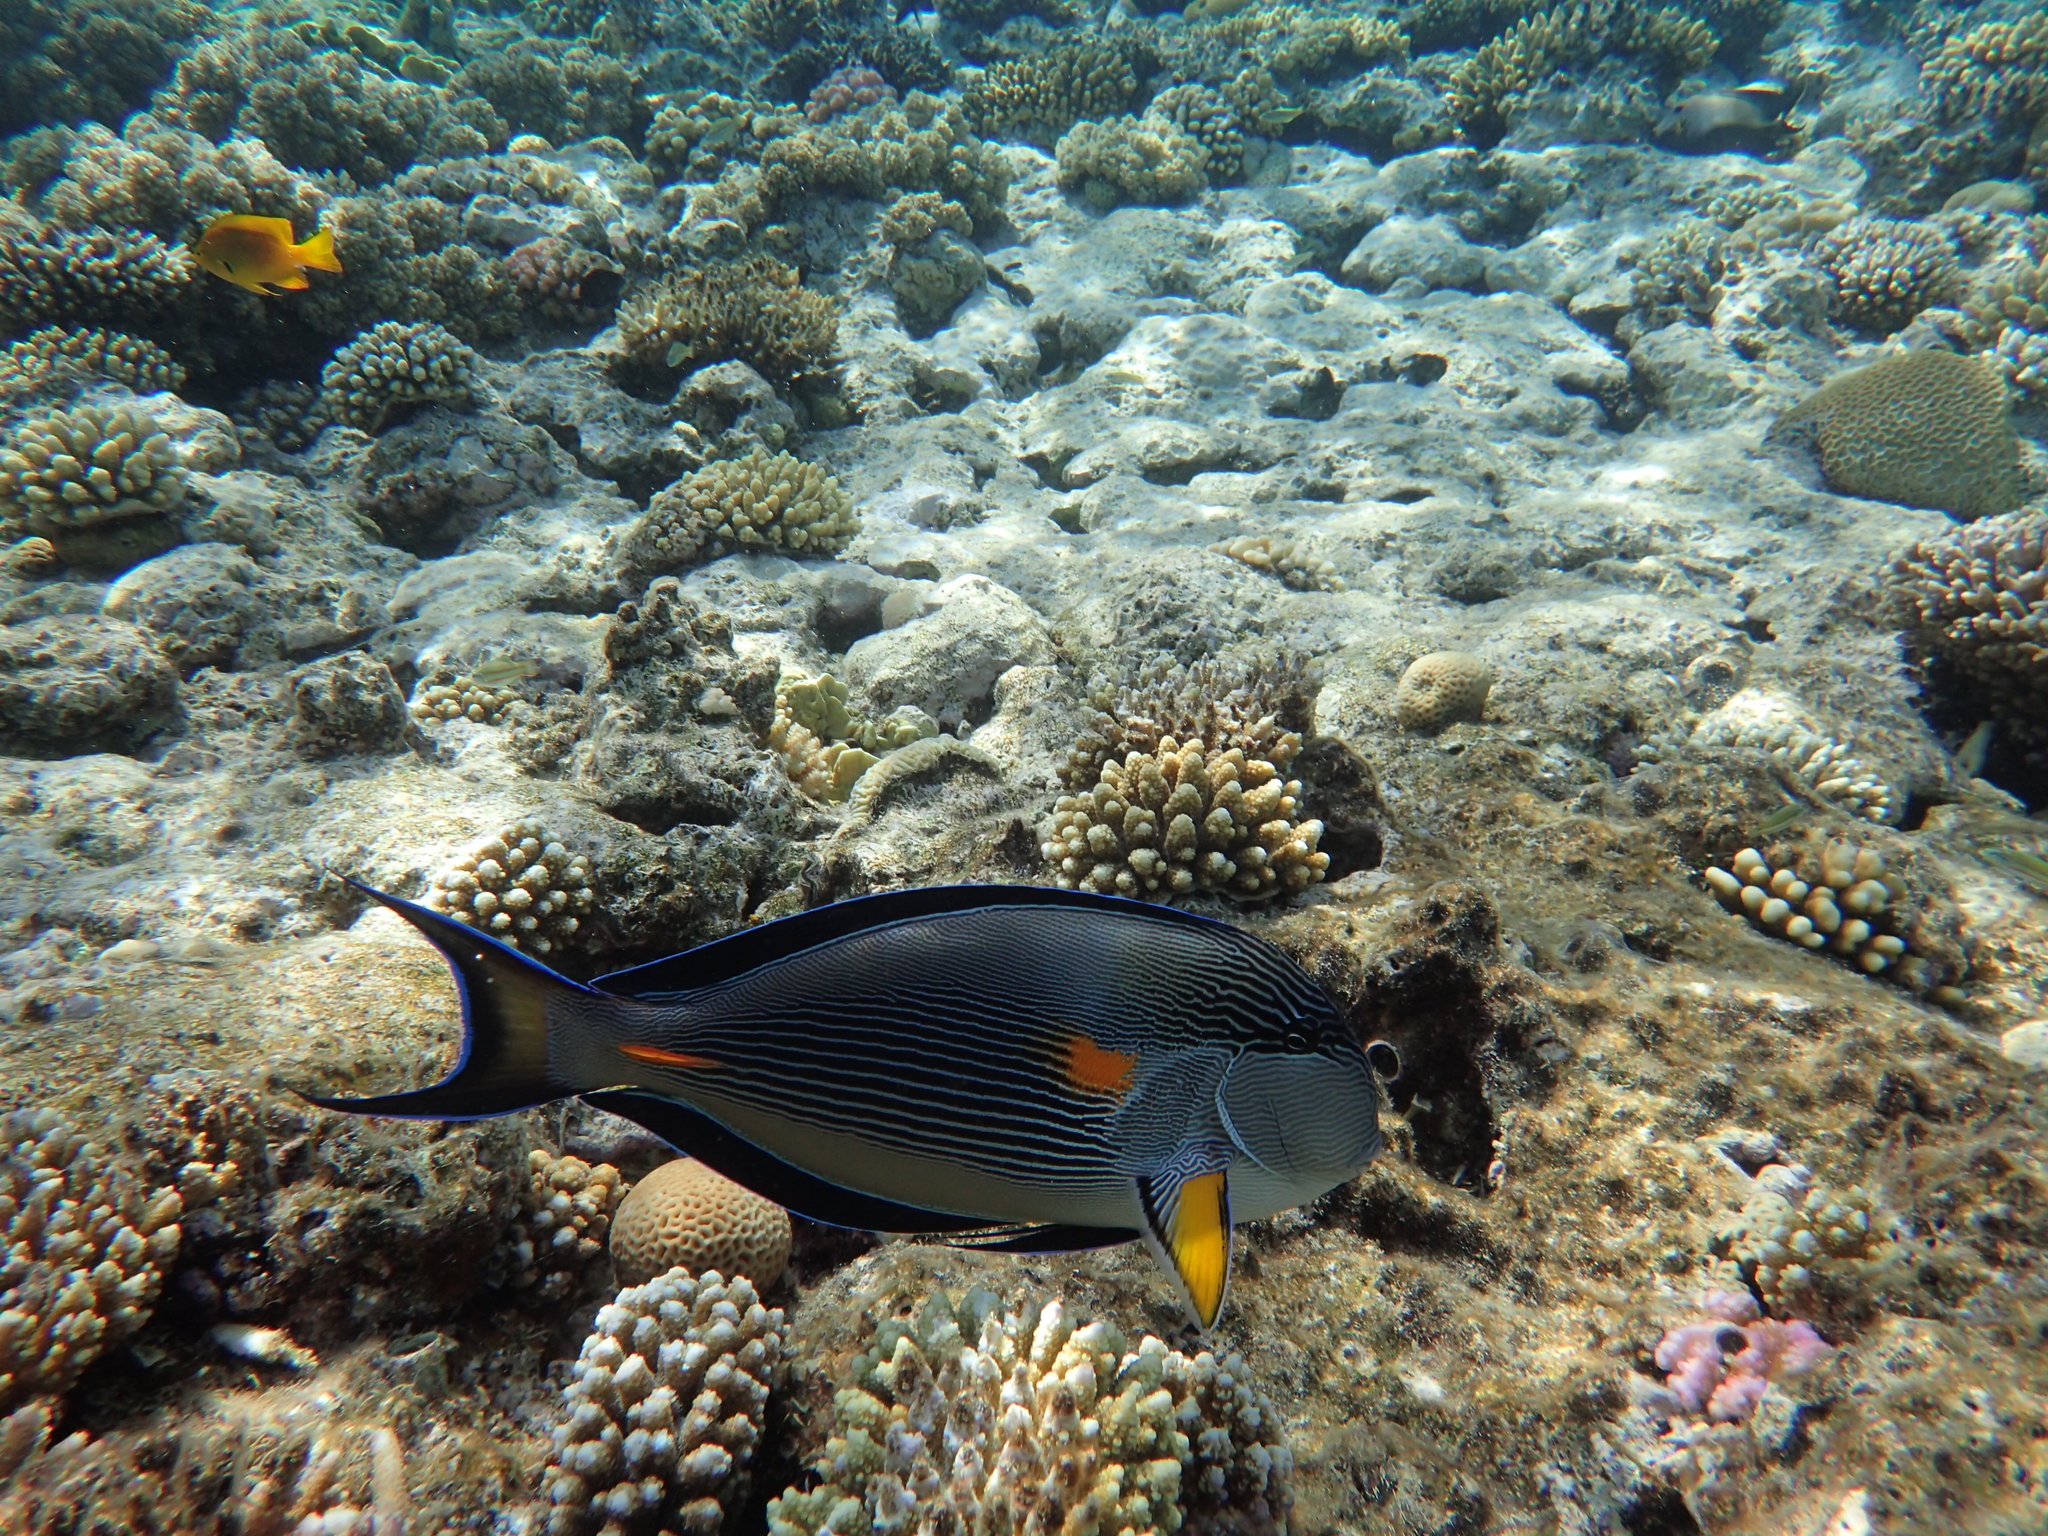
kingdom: Animalia
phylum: Chordata
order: Perciformes
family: Acanthuridae
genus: Acanthurus
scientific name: Acanthurus sohal
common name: Red sea surgeonfish
